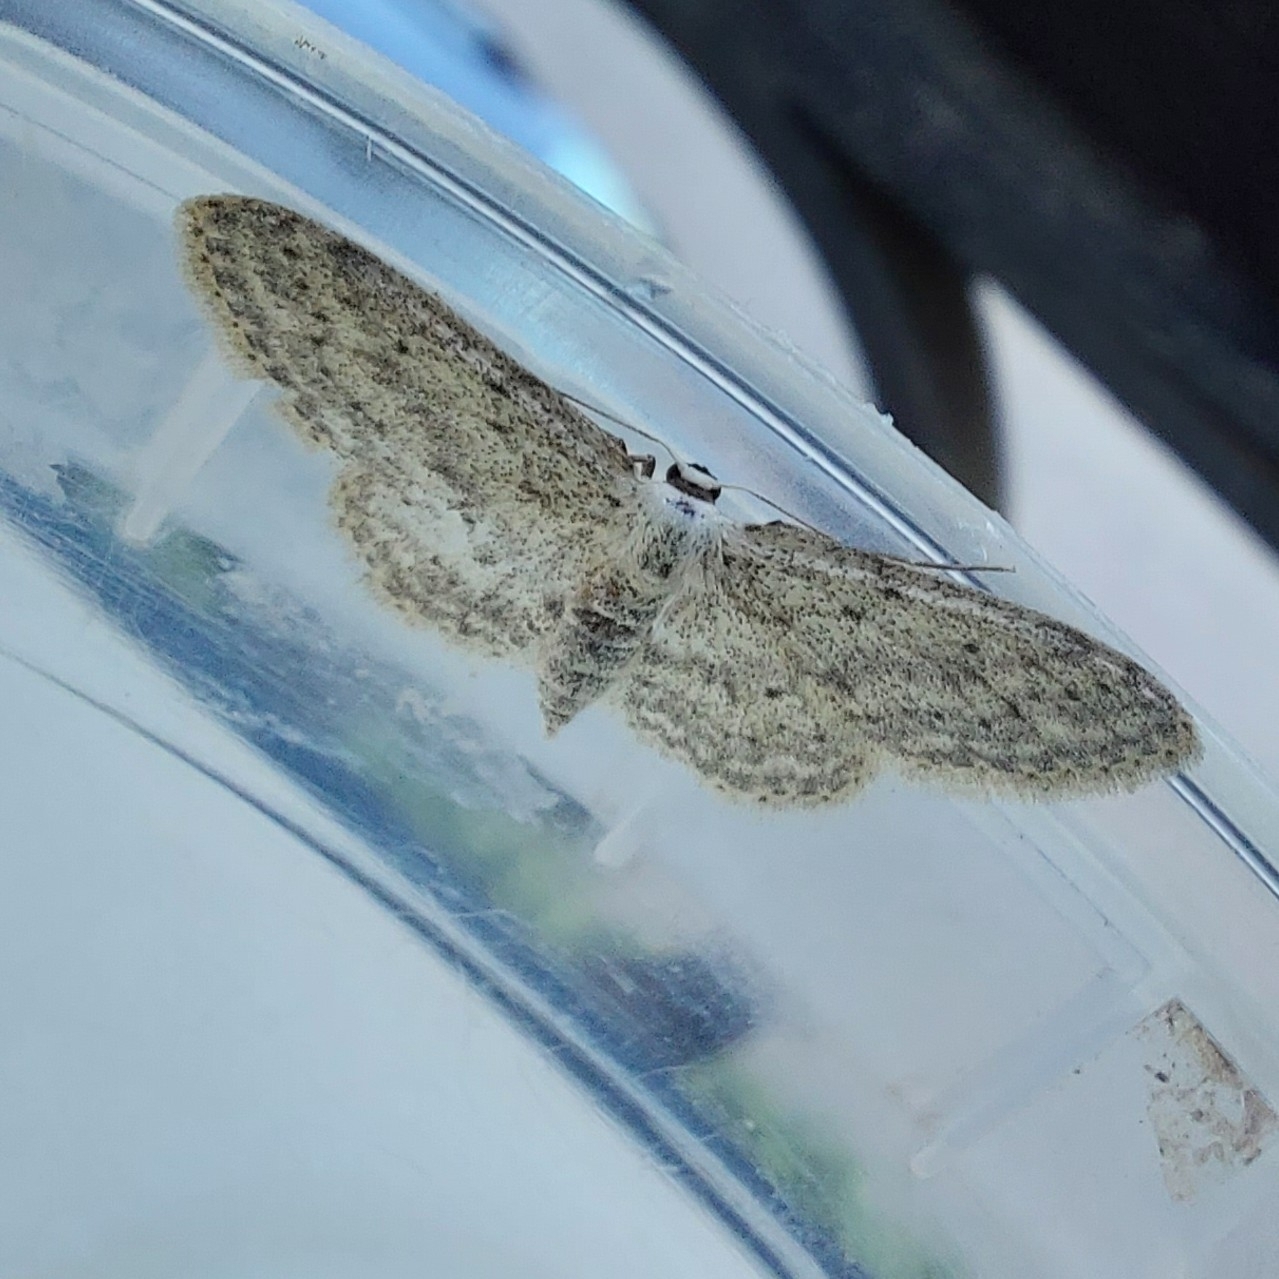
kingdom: Animalia
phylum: Arthropoda
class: Insecta
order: Lepidoptera
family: Geometridae
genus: Idaea
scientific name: Idaea seriata
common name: Small dusty wave
